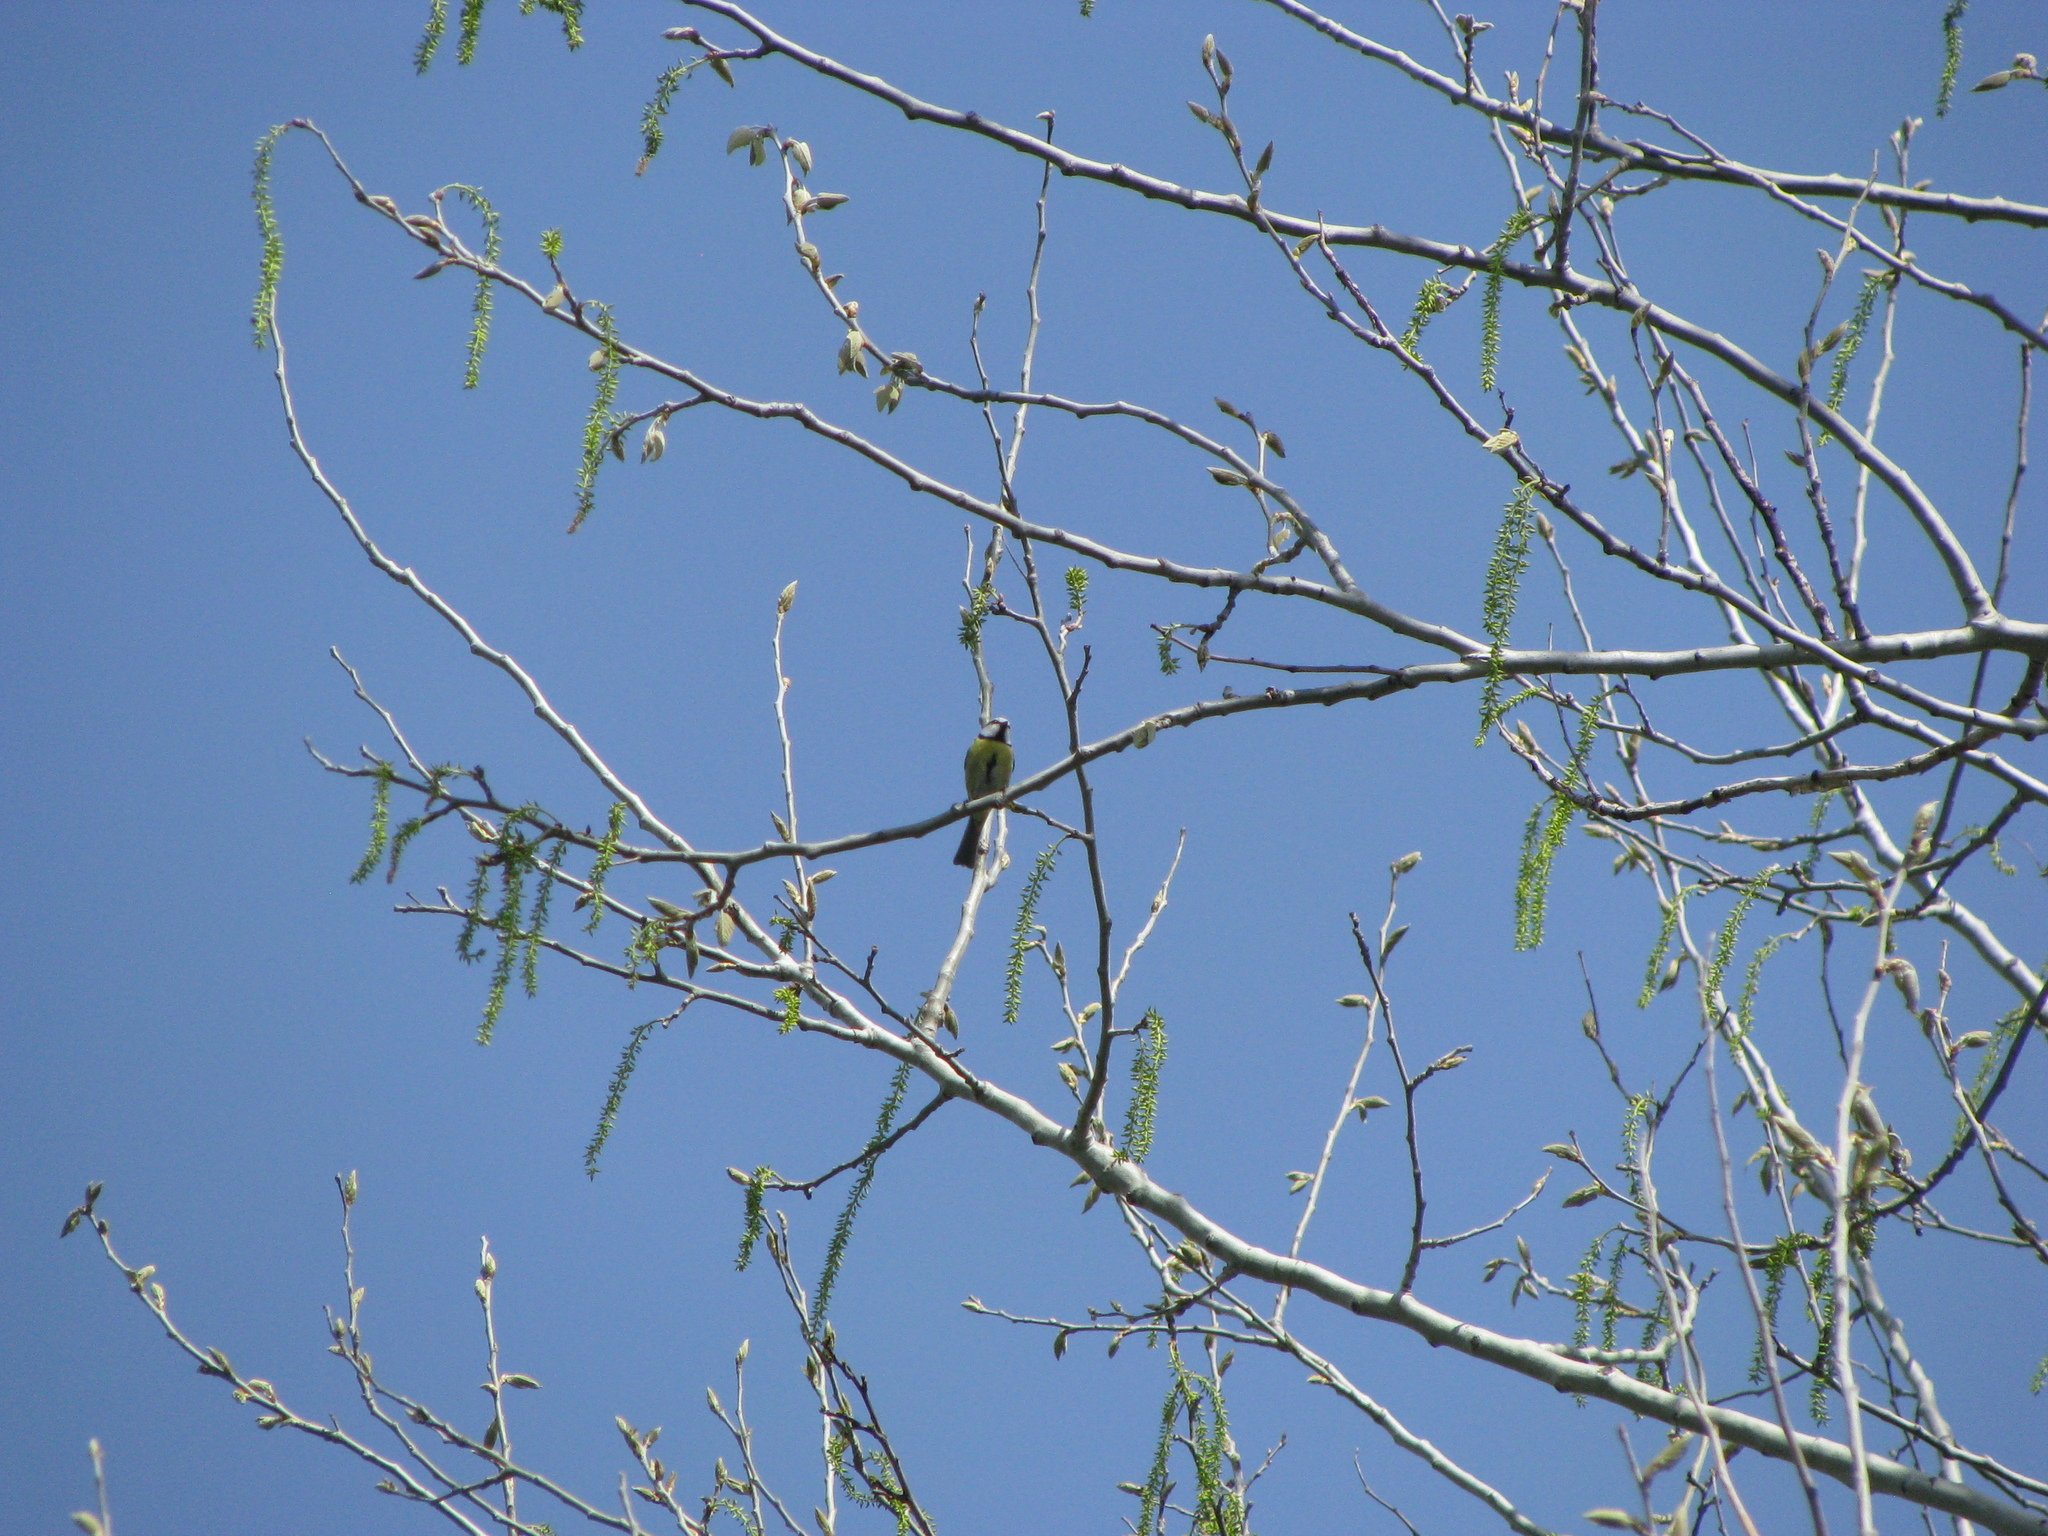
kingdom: Animalia
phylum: Chordata
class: Aves
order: Passeriformes
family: Paridae
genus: Cyanistes
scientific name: Cyanistes caeruleus
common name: Eurasian blue tit
